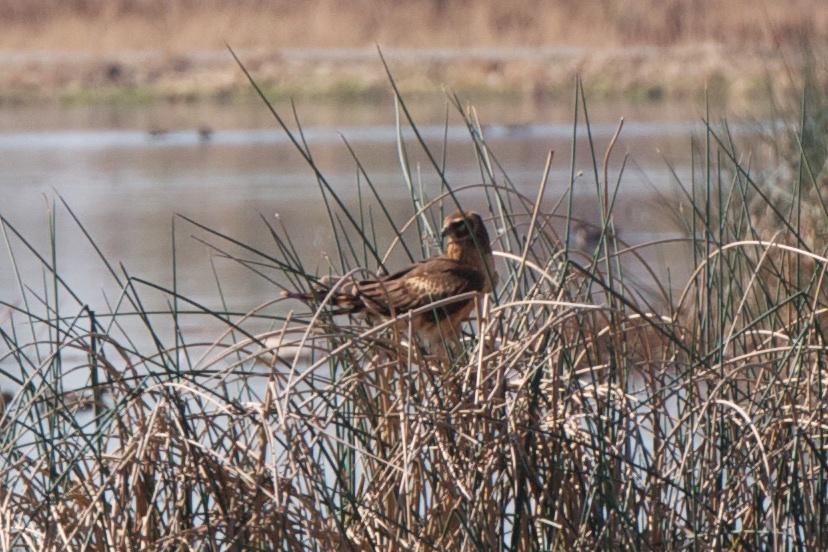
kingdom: Animalia
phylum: Chordata
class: Aves
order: Accipitriformes
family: Accipitridae
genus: Circus
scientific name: Circus cyaneus
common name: Hen harrier
